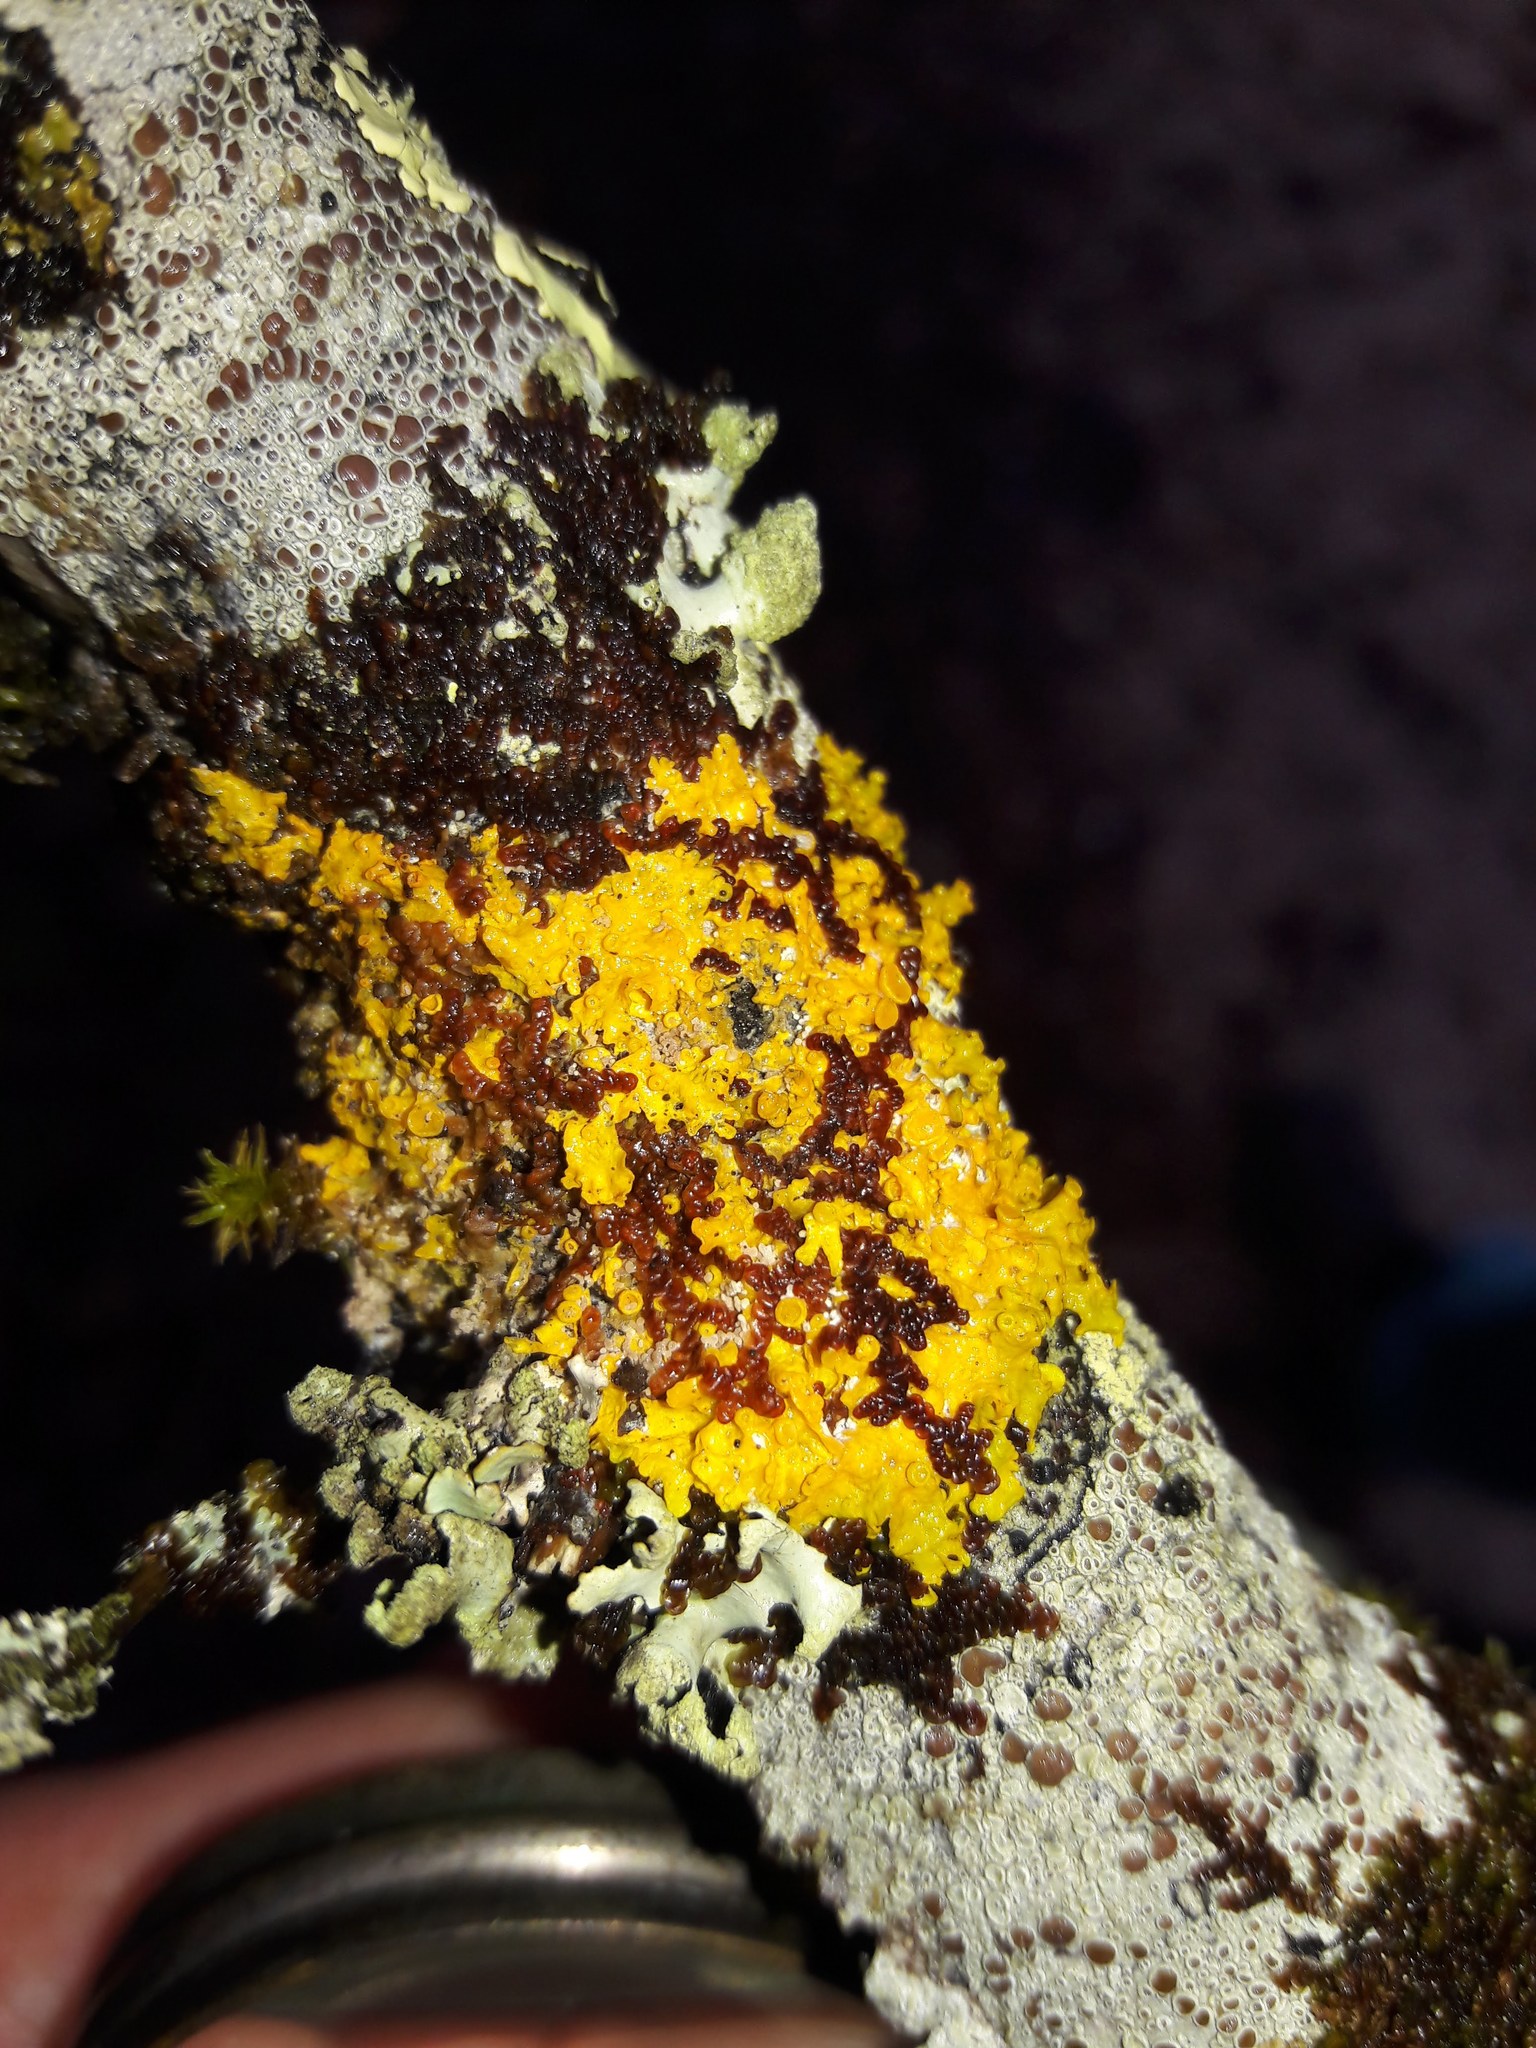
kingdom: Fungi
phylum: Ascomycota
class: Lecanoromycetes
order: Teloschistales
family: Teloschistaceae
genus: Xanthoria
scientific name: Xanthoria parietina
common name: Common orange lichen
